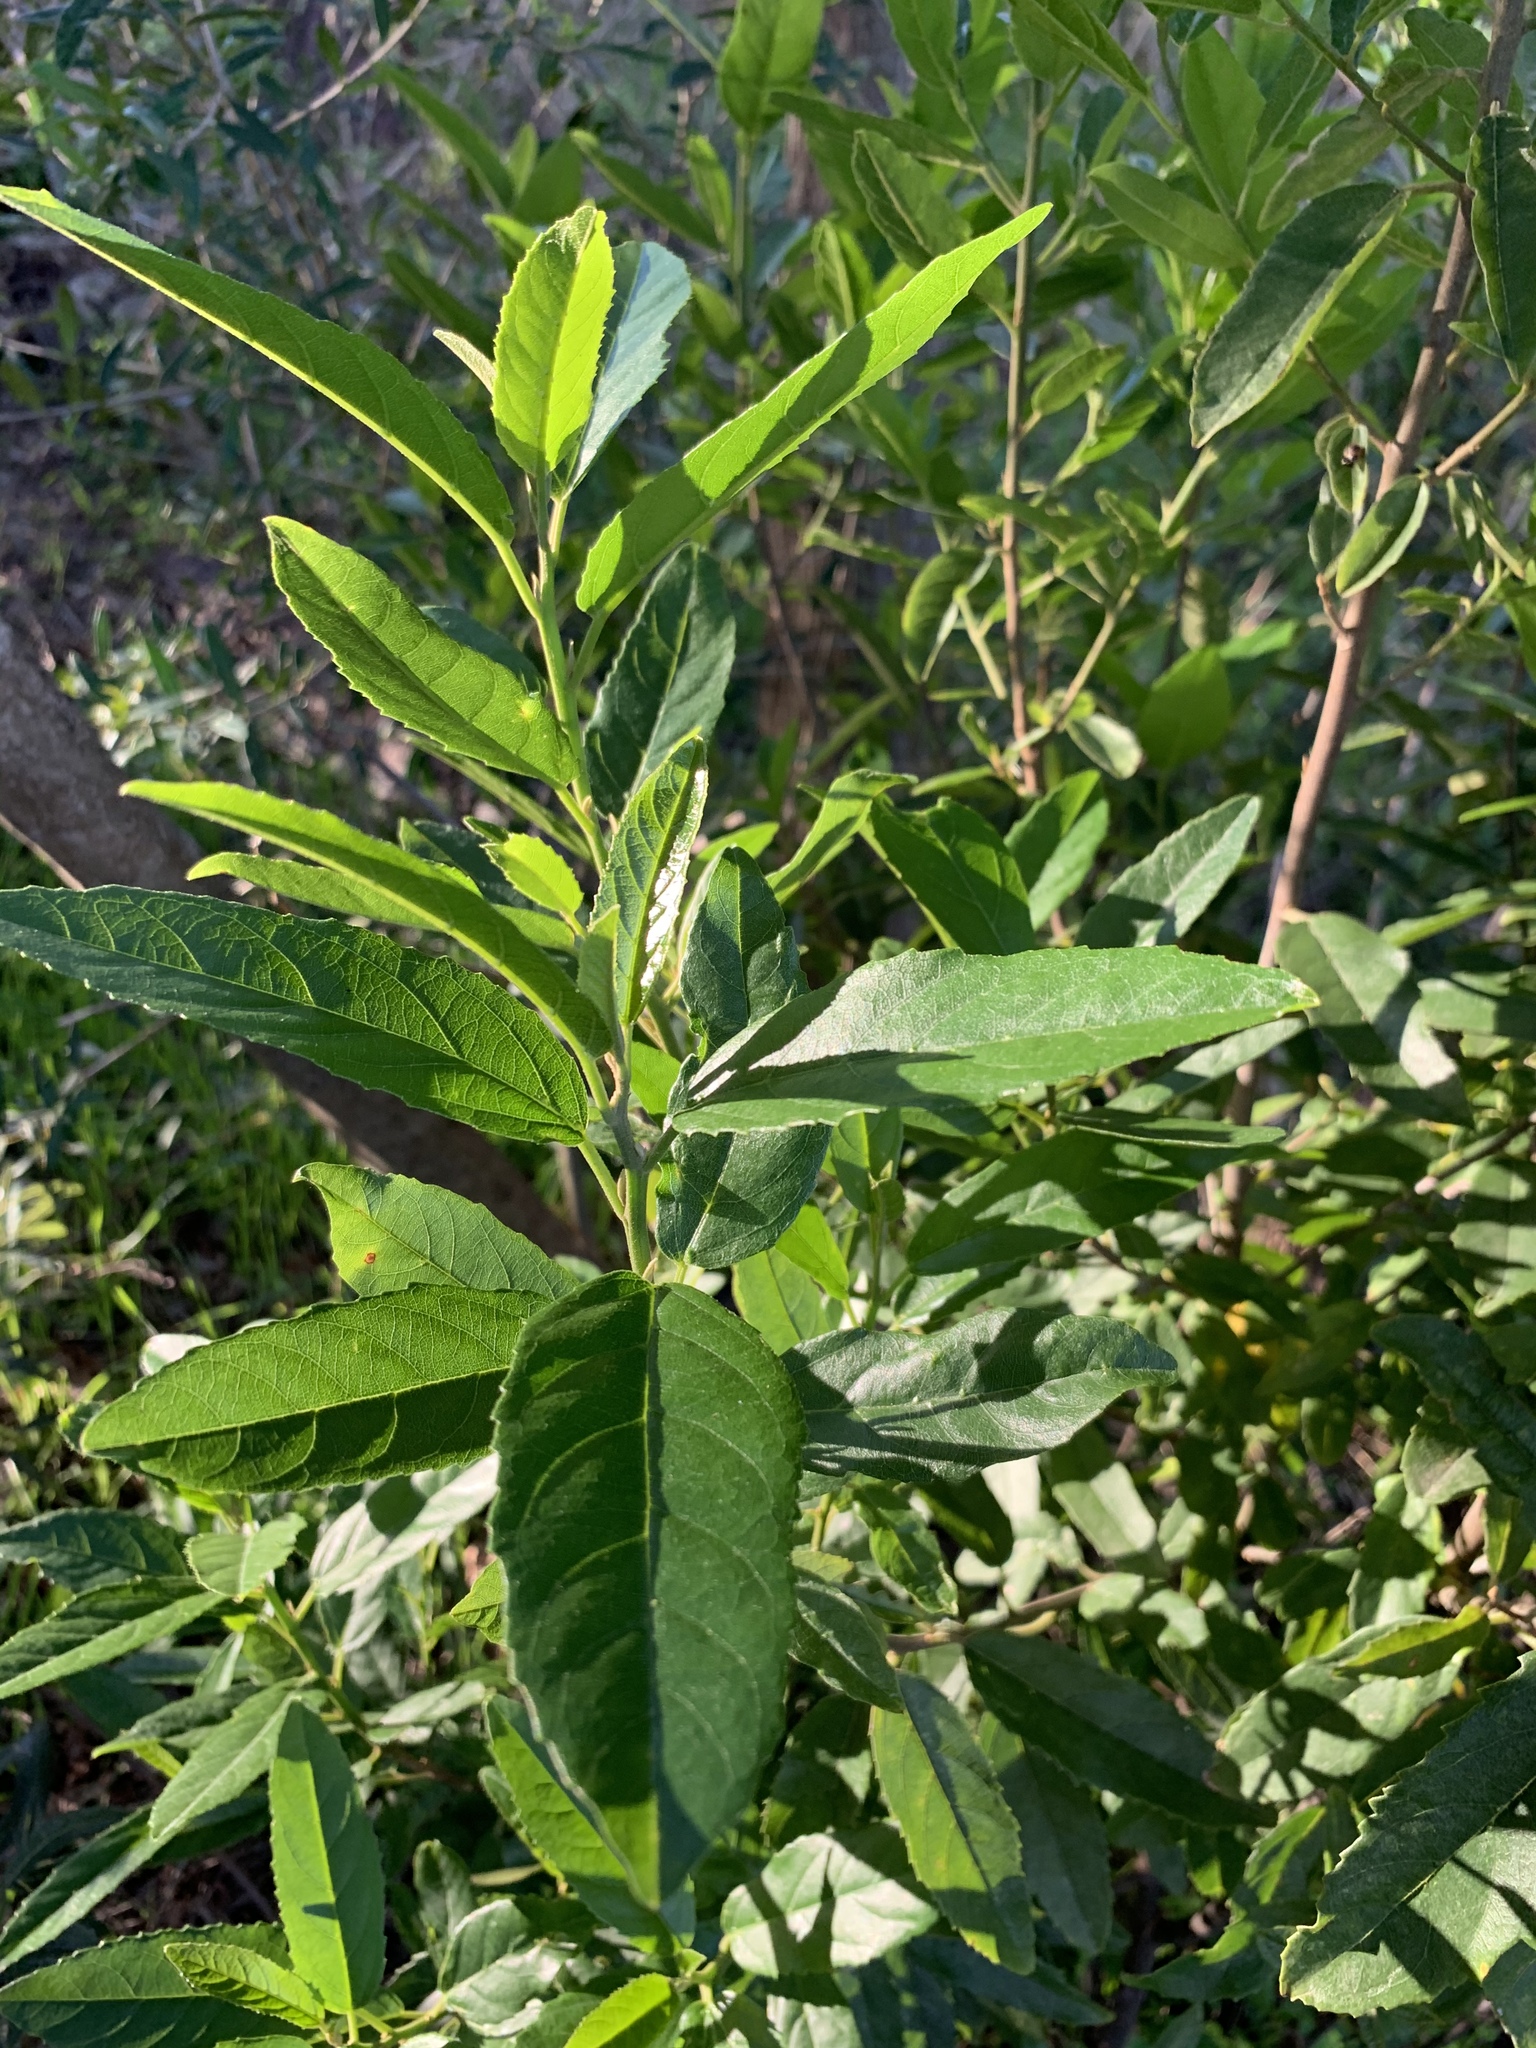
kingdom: Plantae
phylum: Tracheophyta
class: Magnoliopsida
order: Malpighiales
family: Achariaceae
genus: Kiggelaria
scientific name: Kiggelaria africana
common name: Wild peach
